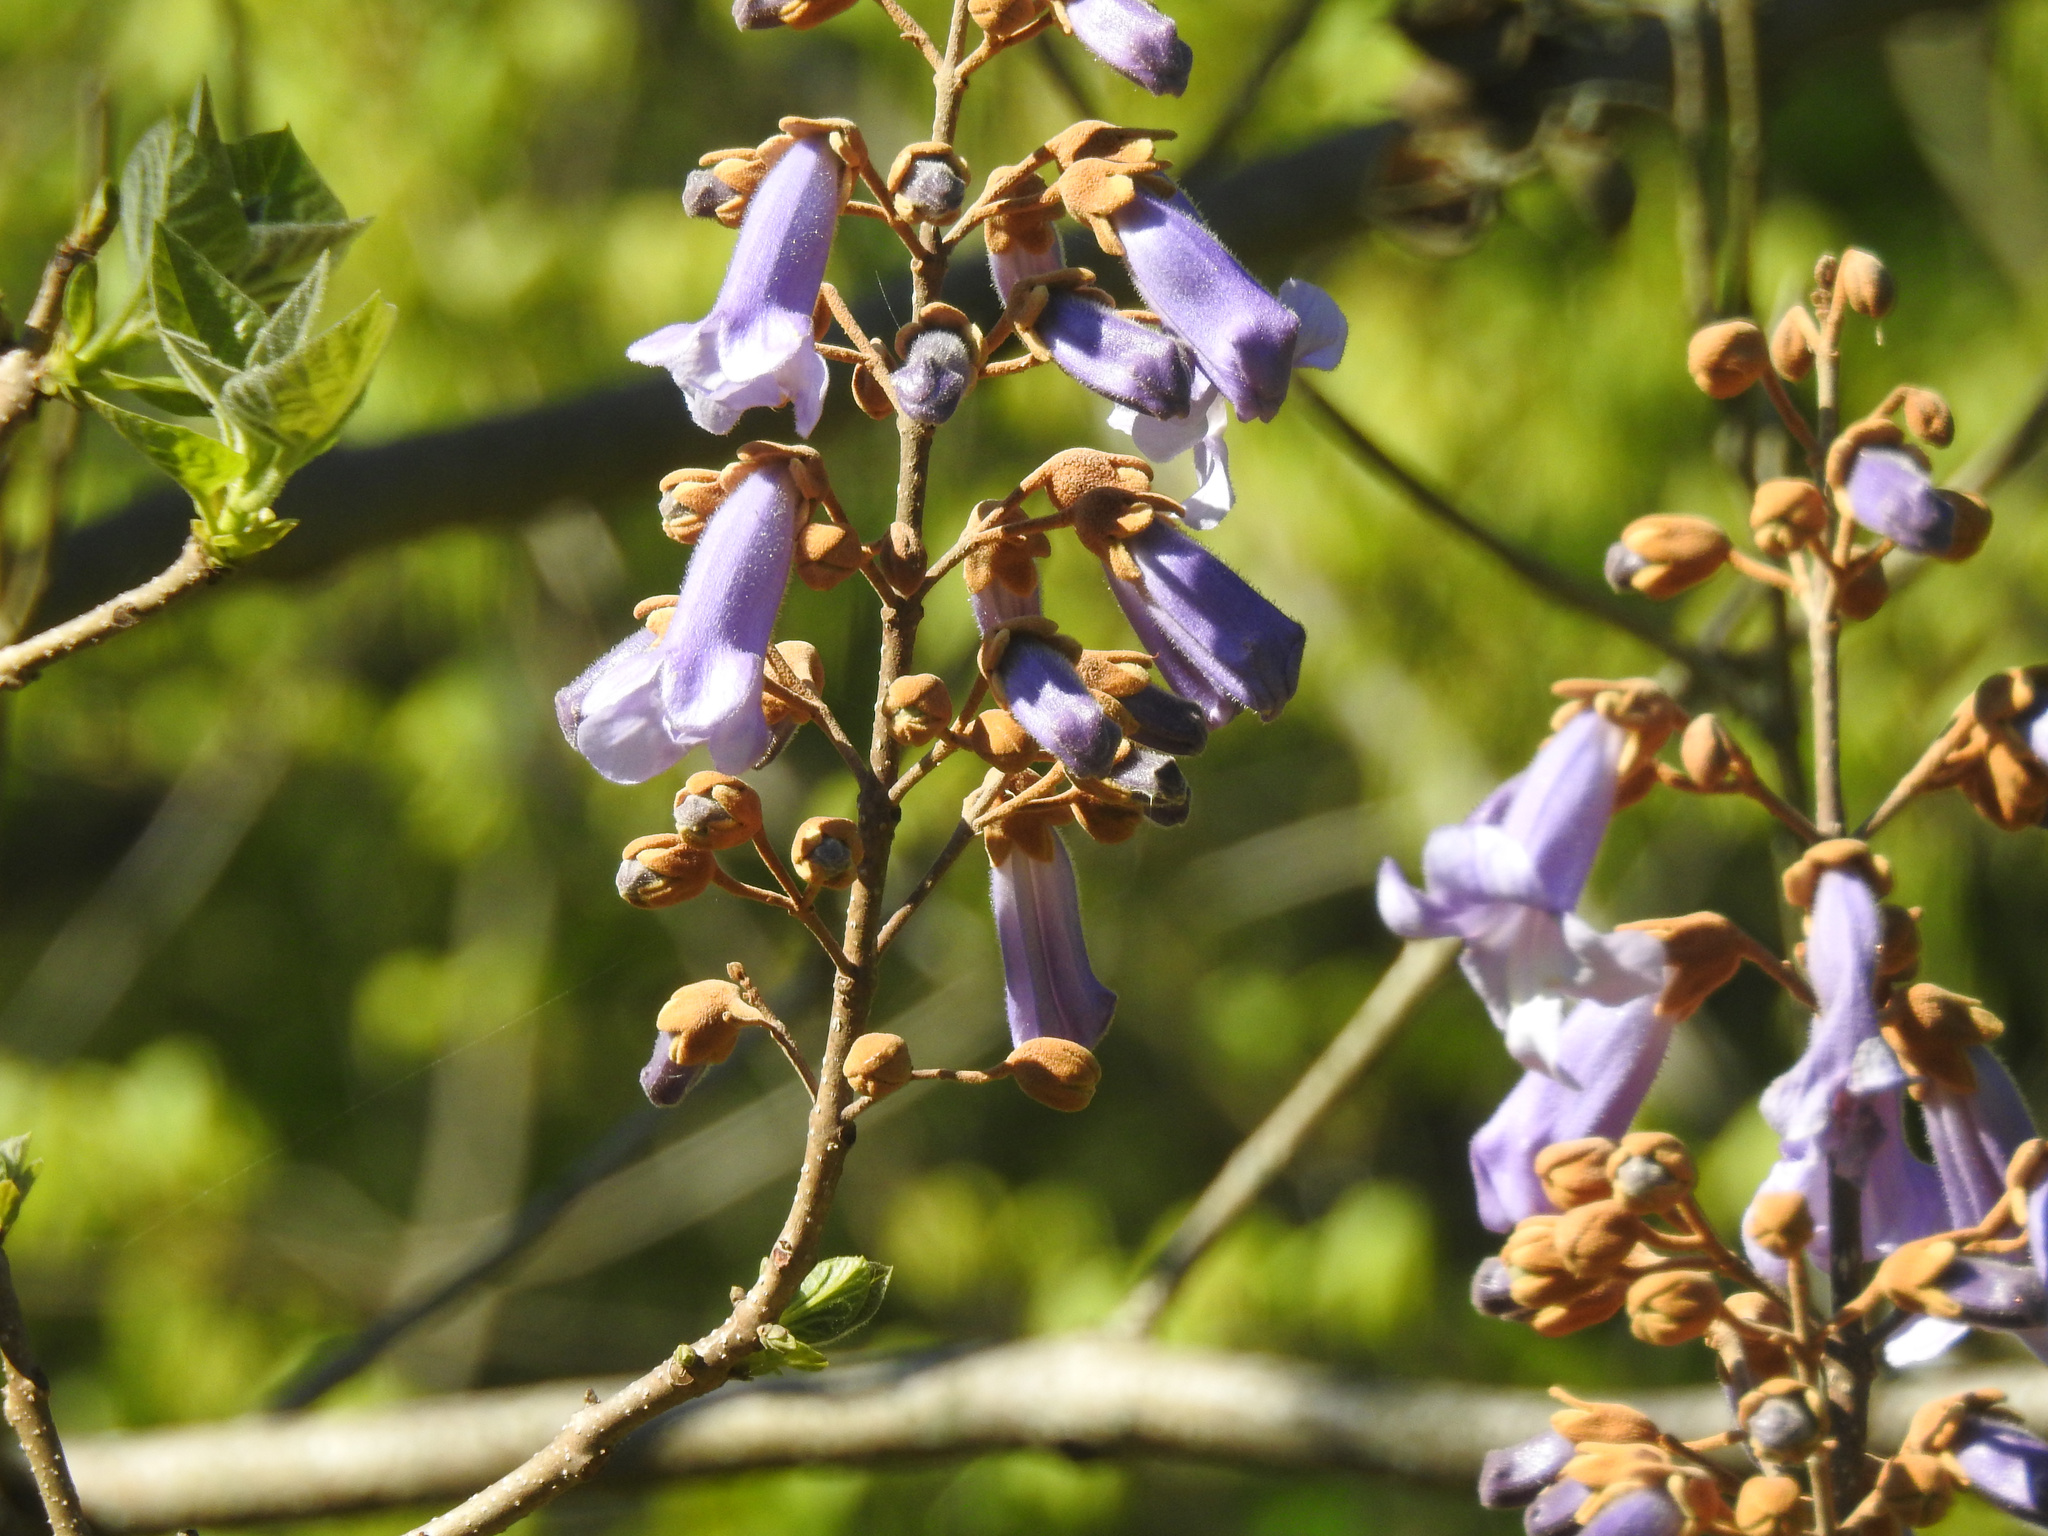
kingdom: Plantae
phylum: Tracheophyta
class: Magnoliopsida
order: Lamiales
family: Paulowniaceae
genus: Paulownia
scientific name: Paulownia tomentosa
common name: Foxglove-tree
